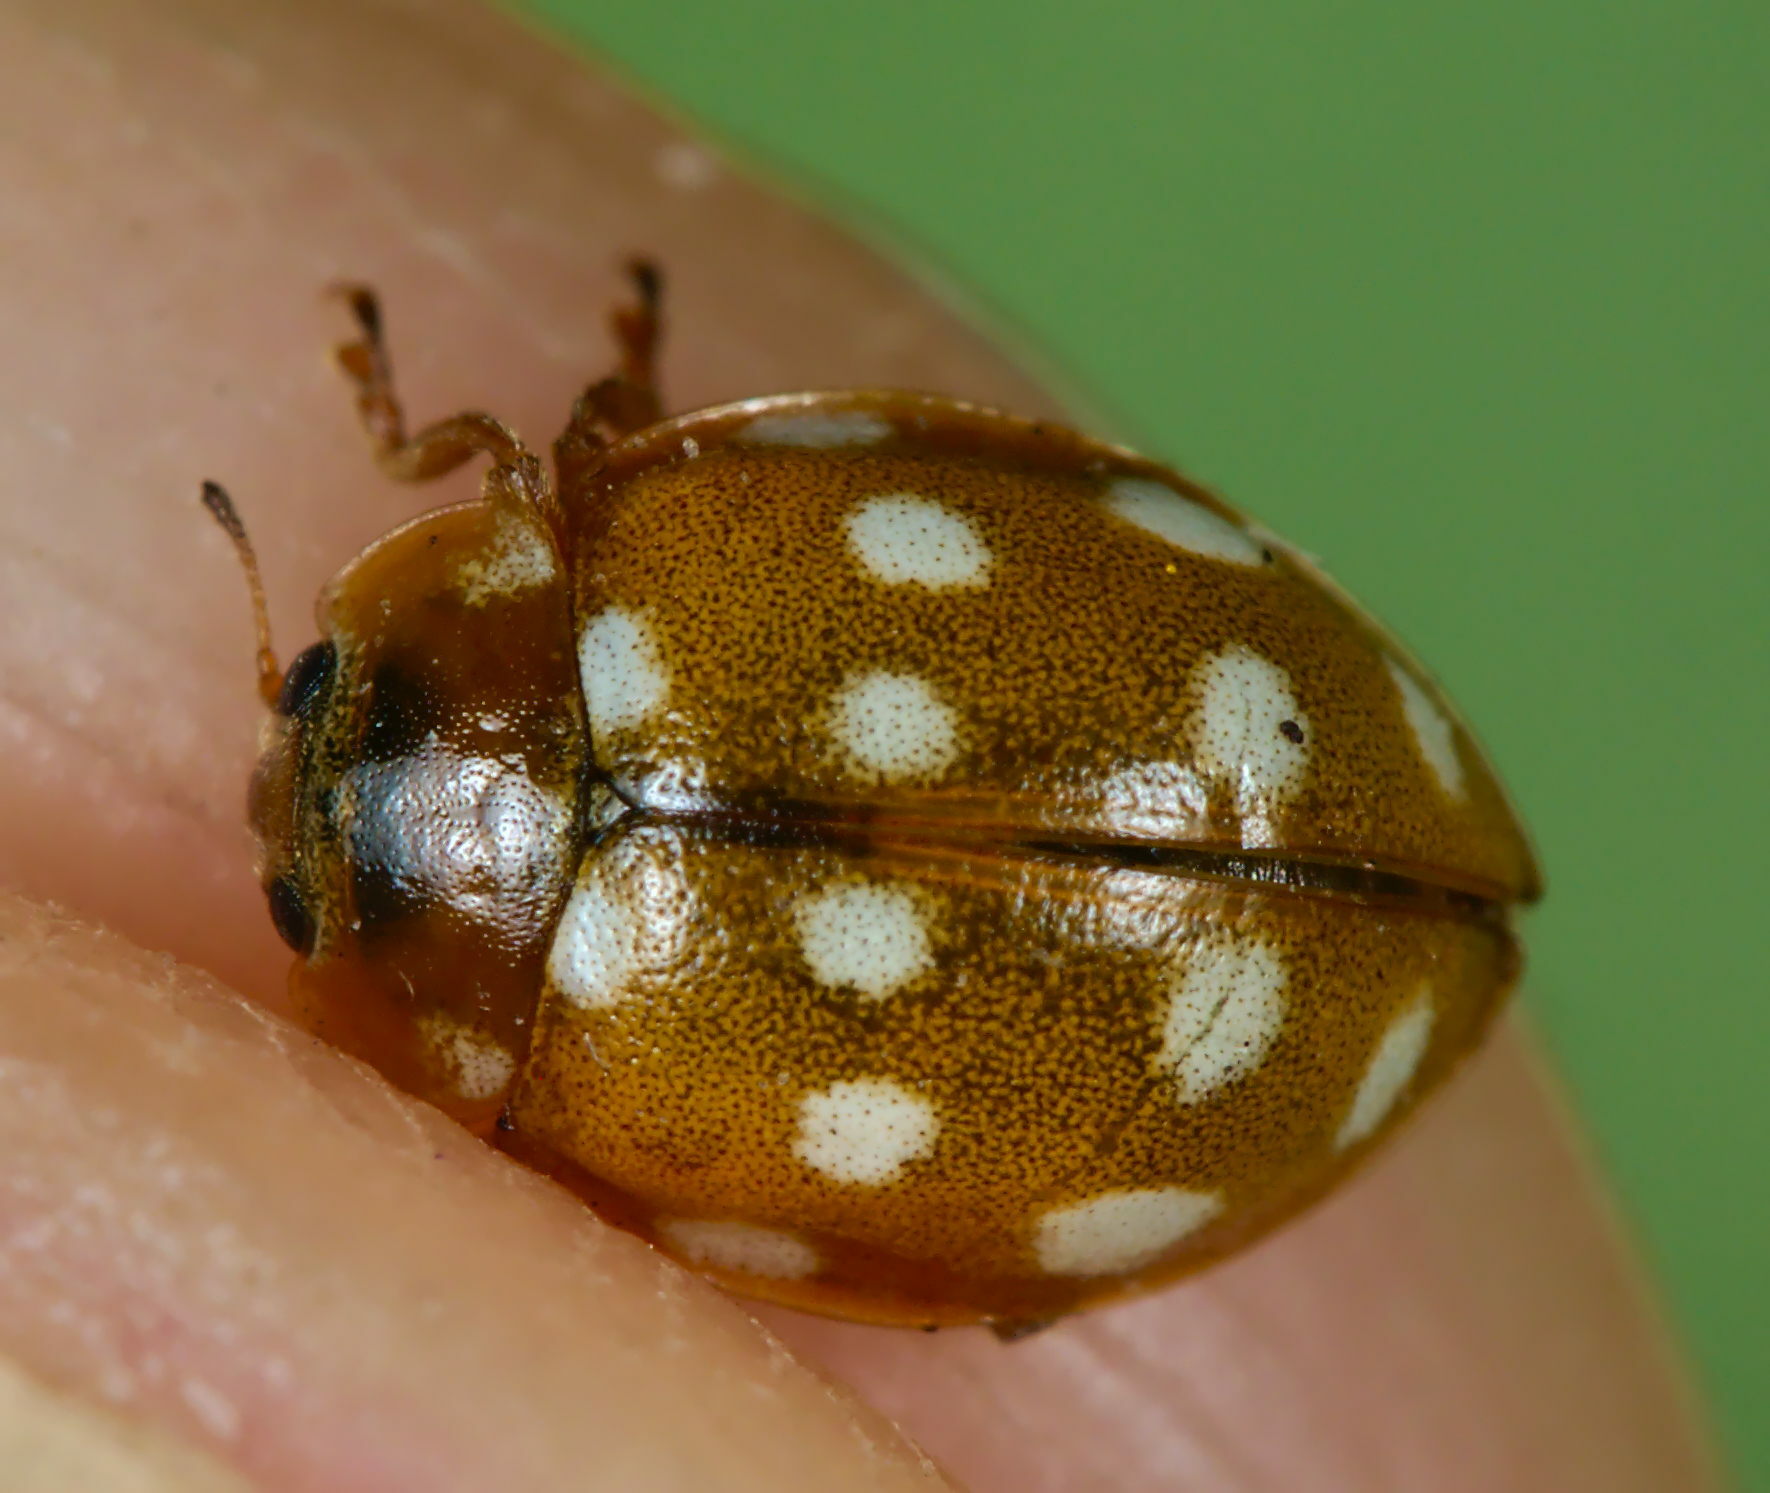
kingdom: Animalia
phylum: Arthropoda
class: Insecta
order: Coleoptera
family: Coccinellidae
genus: Calvia
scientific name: Calvia quatuordecimguttata
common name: Cream-spot ladybird
